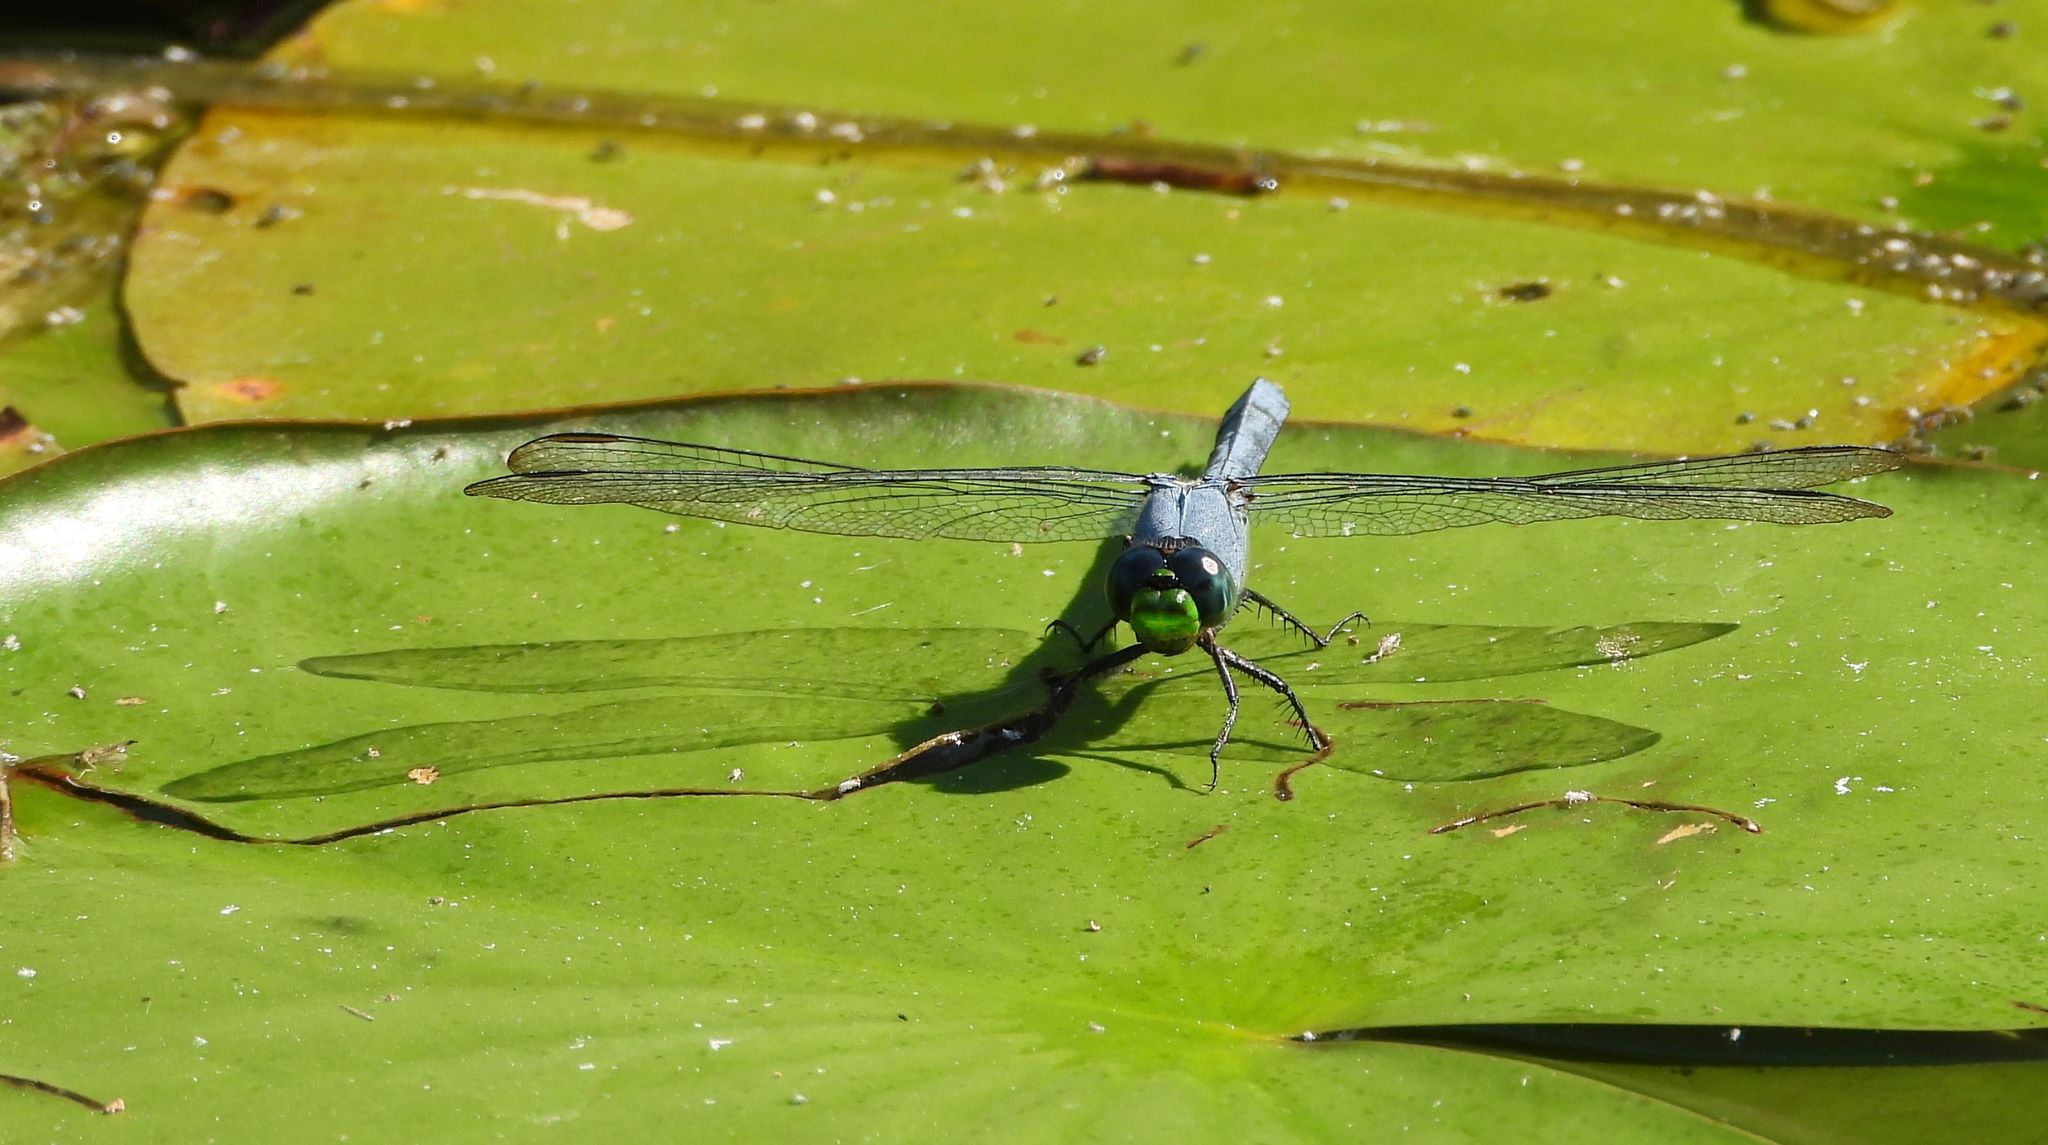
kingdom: Animalia
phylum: Arthropoda
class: Insecta
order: Odonata
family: Libellulidae
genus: Erythemis
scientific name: Erythemis simplicicollis
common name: Eastern pondhawk
